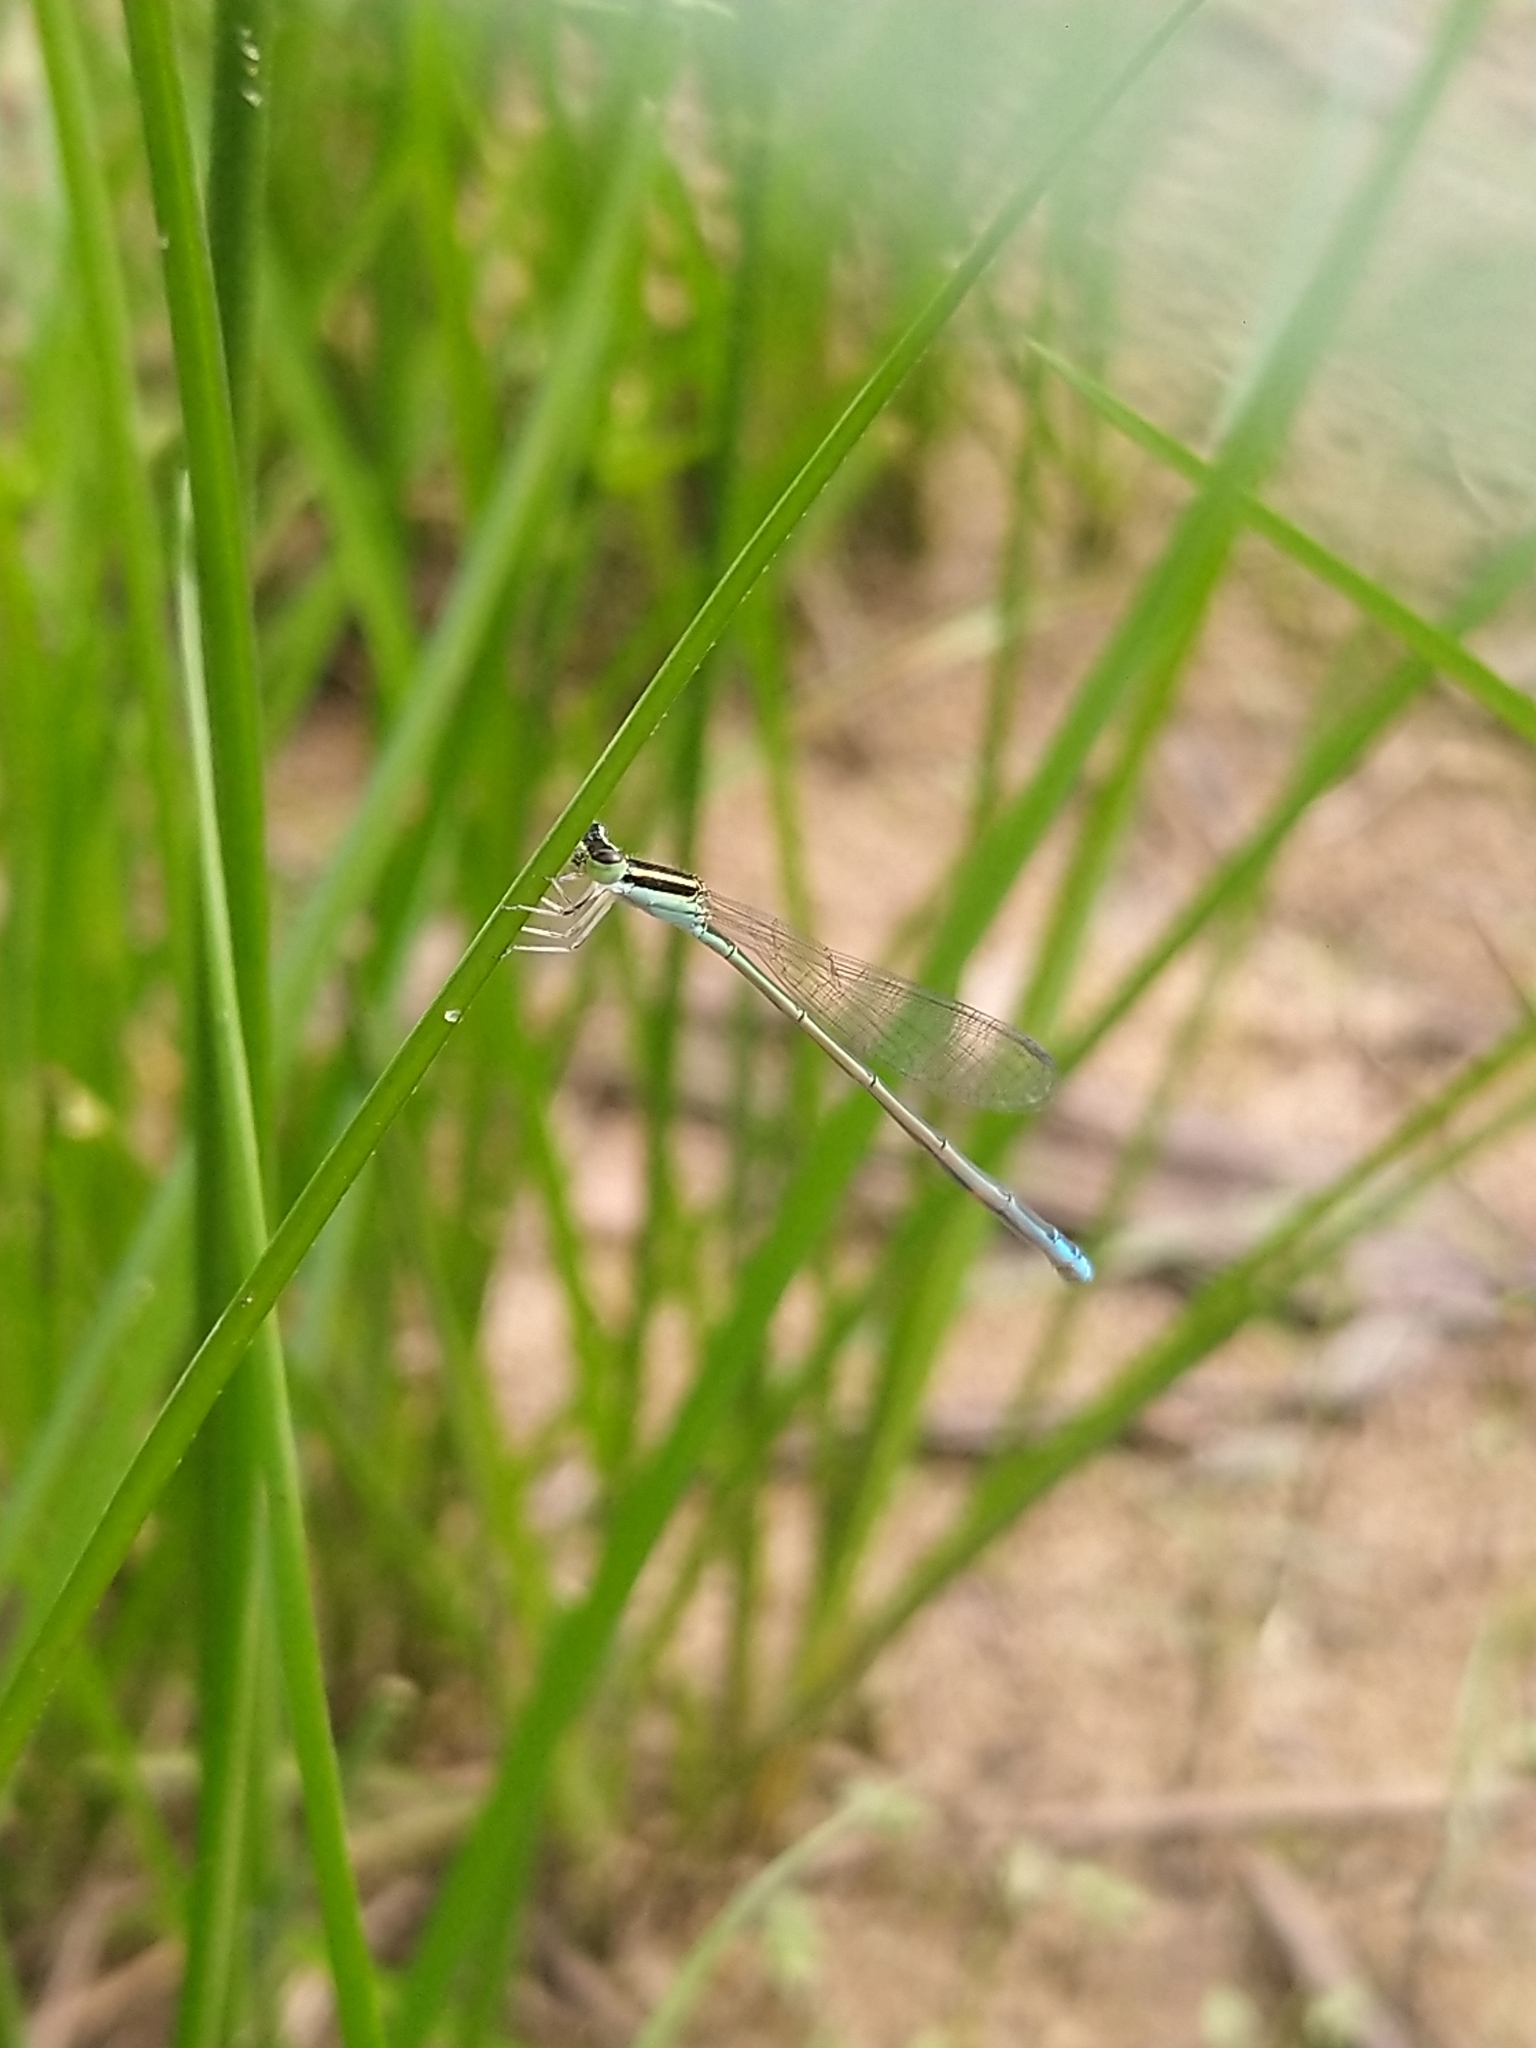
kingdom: Animalia
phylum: Arthropoda
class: Insecta
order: Odonata
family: Coenagrionidae
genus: Aciagrion
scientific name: Aciagrion occidentale
